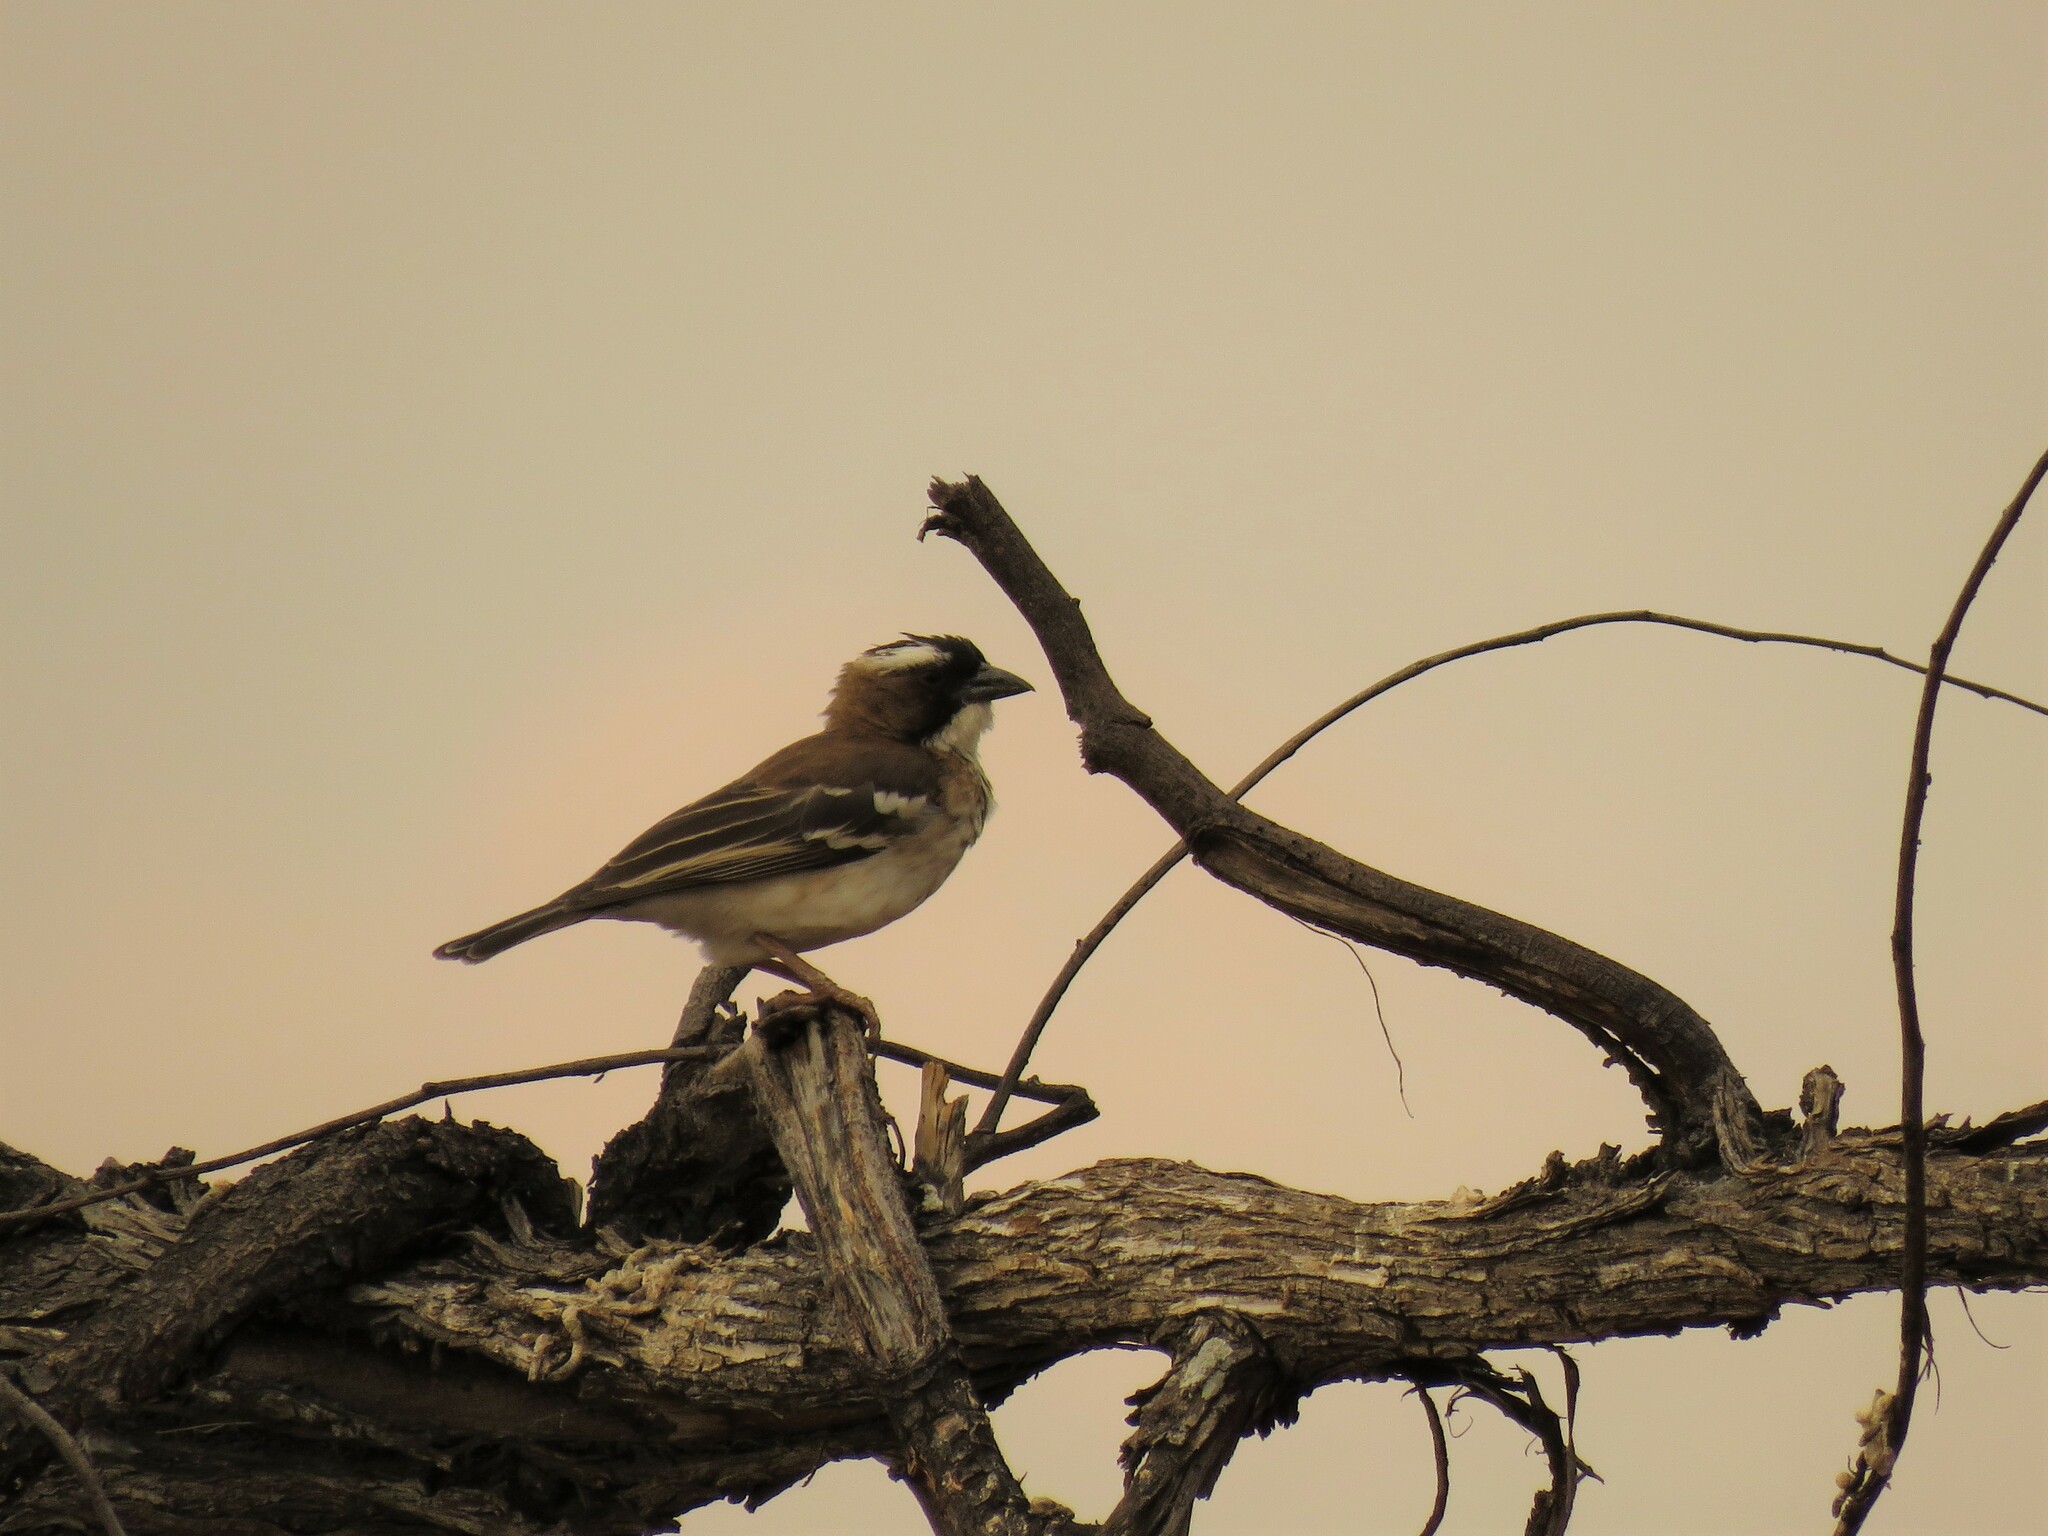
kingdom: Animalia
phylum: Chordata
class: Aves
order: Passeriformes
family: Passeridae
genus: Plocepasser
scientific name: Plocepasser mahali
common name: White-browed sparrow-weaver
